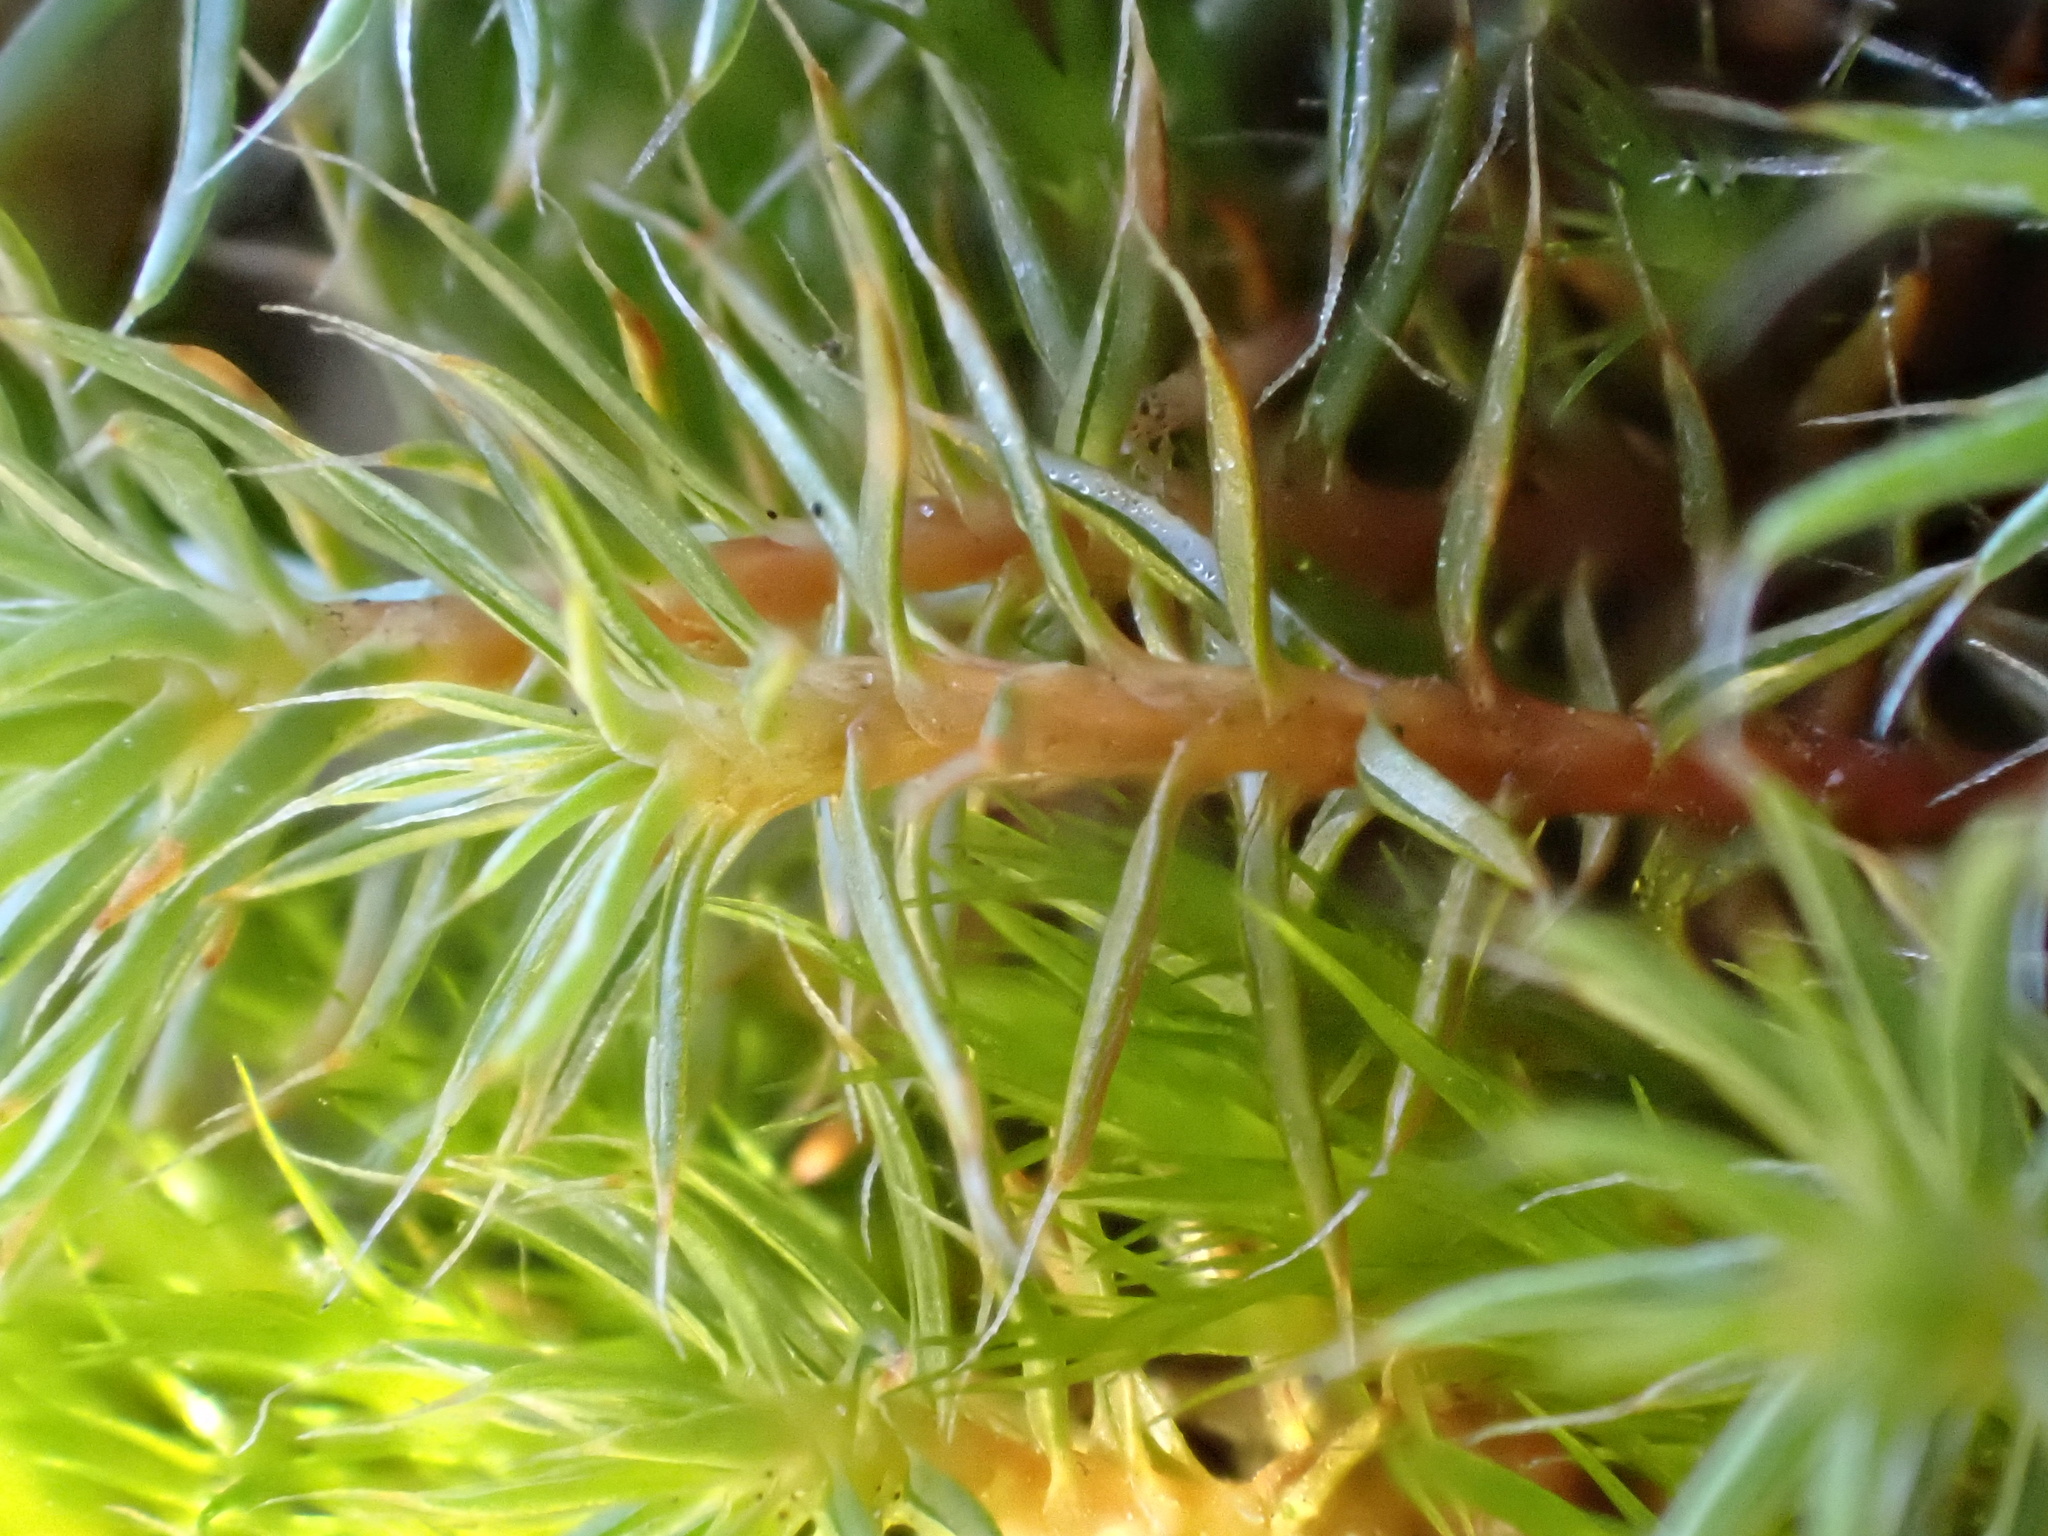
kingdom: Plantae
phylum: Bryophyta
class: Polytrichopsida
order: Polytrichales
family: Polytrichaceae
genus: Polytrichum
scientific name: Polytrichum piliferum
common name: Bristly haircap
